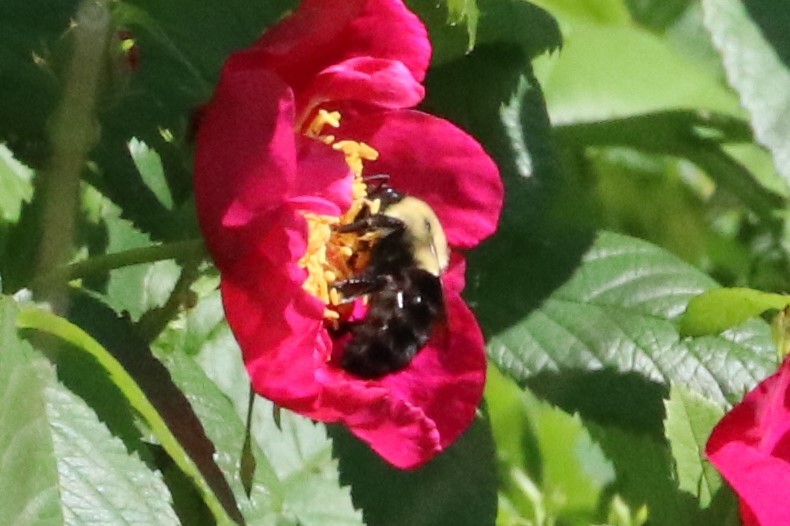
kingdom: Animalia
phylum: Arthropoda
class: Insecta
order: Hymenoptera
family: Apidae
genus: Bombus
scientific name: Bombus impatiens
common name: Common eastern bumble bee
